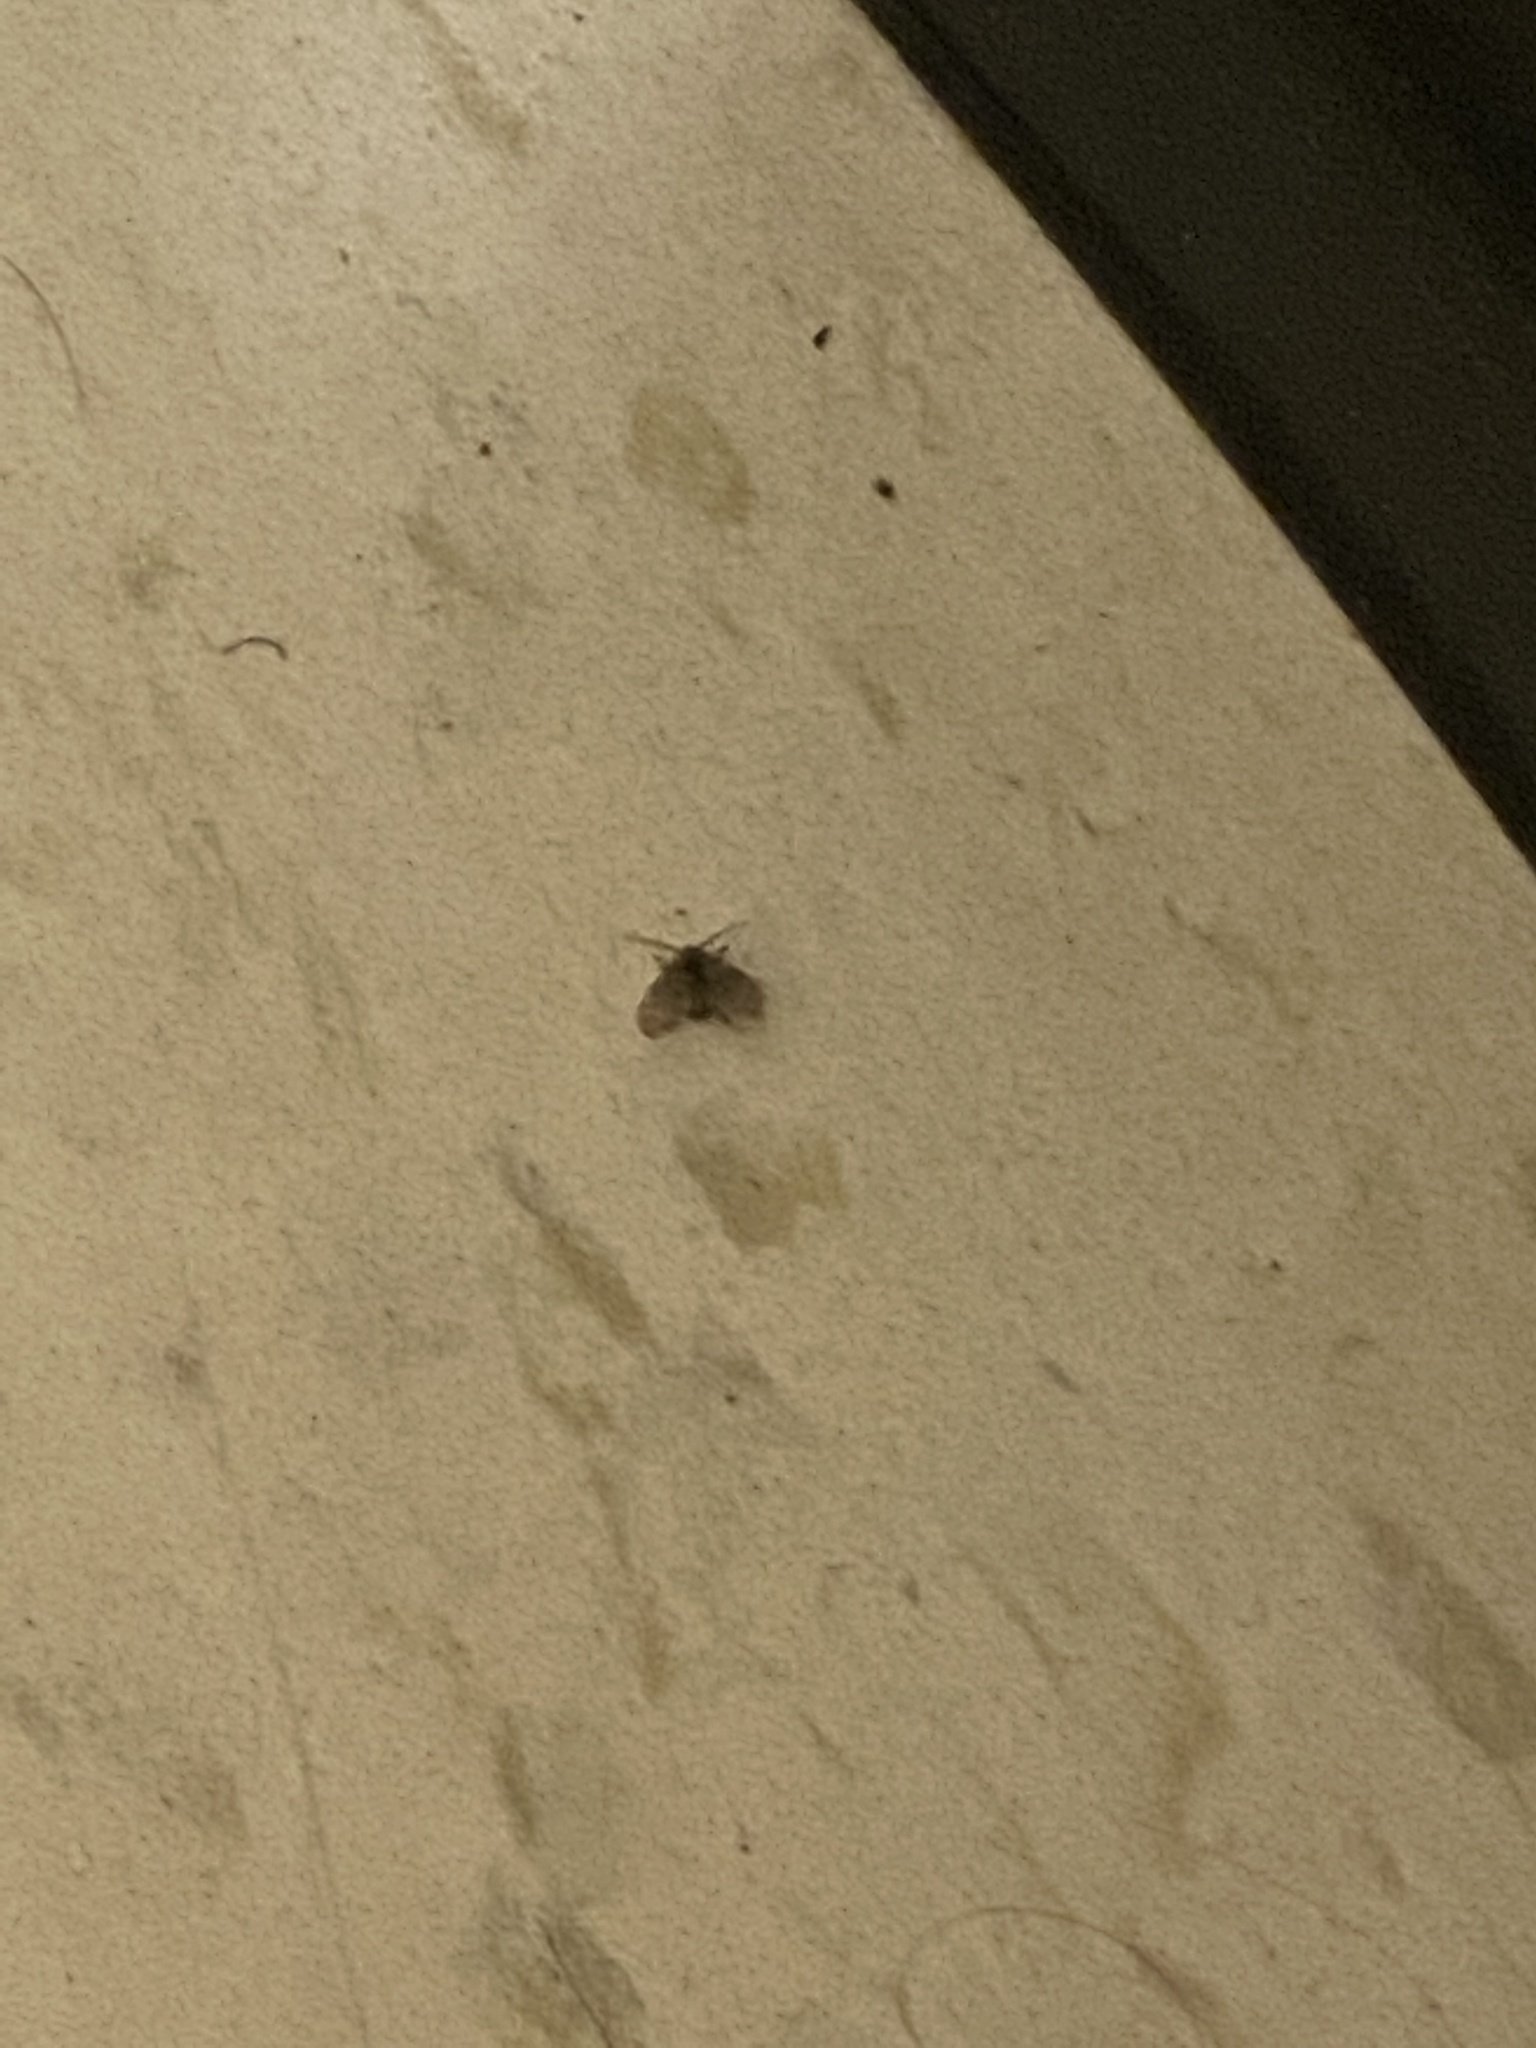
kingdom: Animalia
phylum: Arthropoda
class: Insecta
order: Diptera
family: Psychodidae
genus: Clogmia
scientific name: Clogmia albipunctatus
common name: White-spotted moth fly
